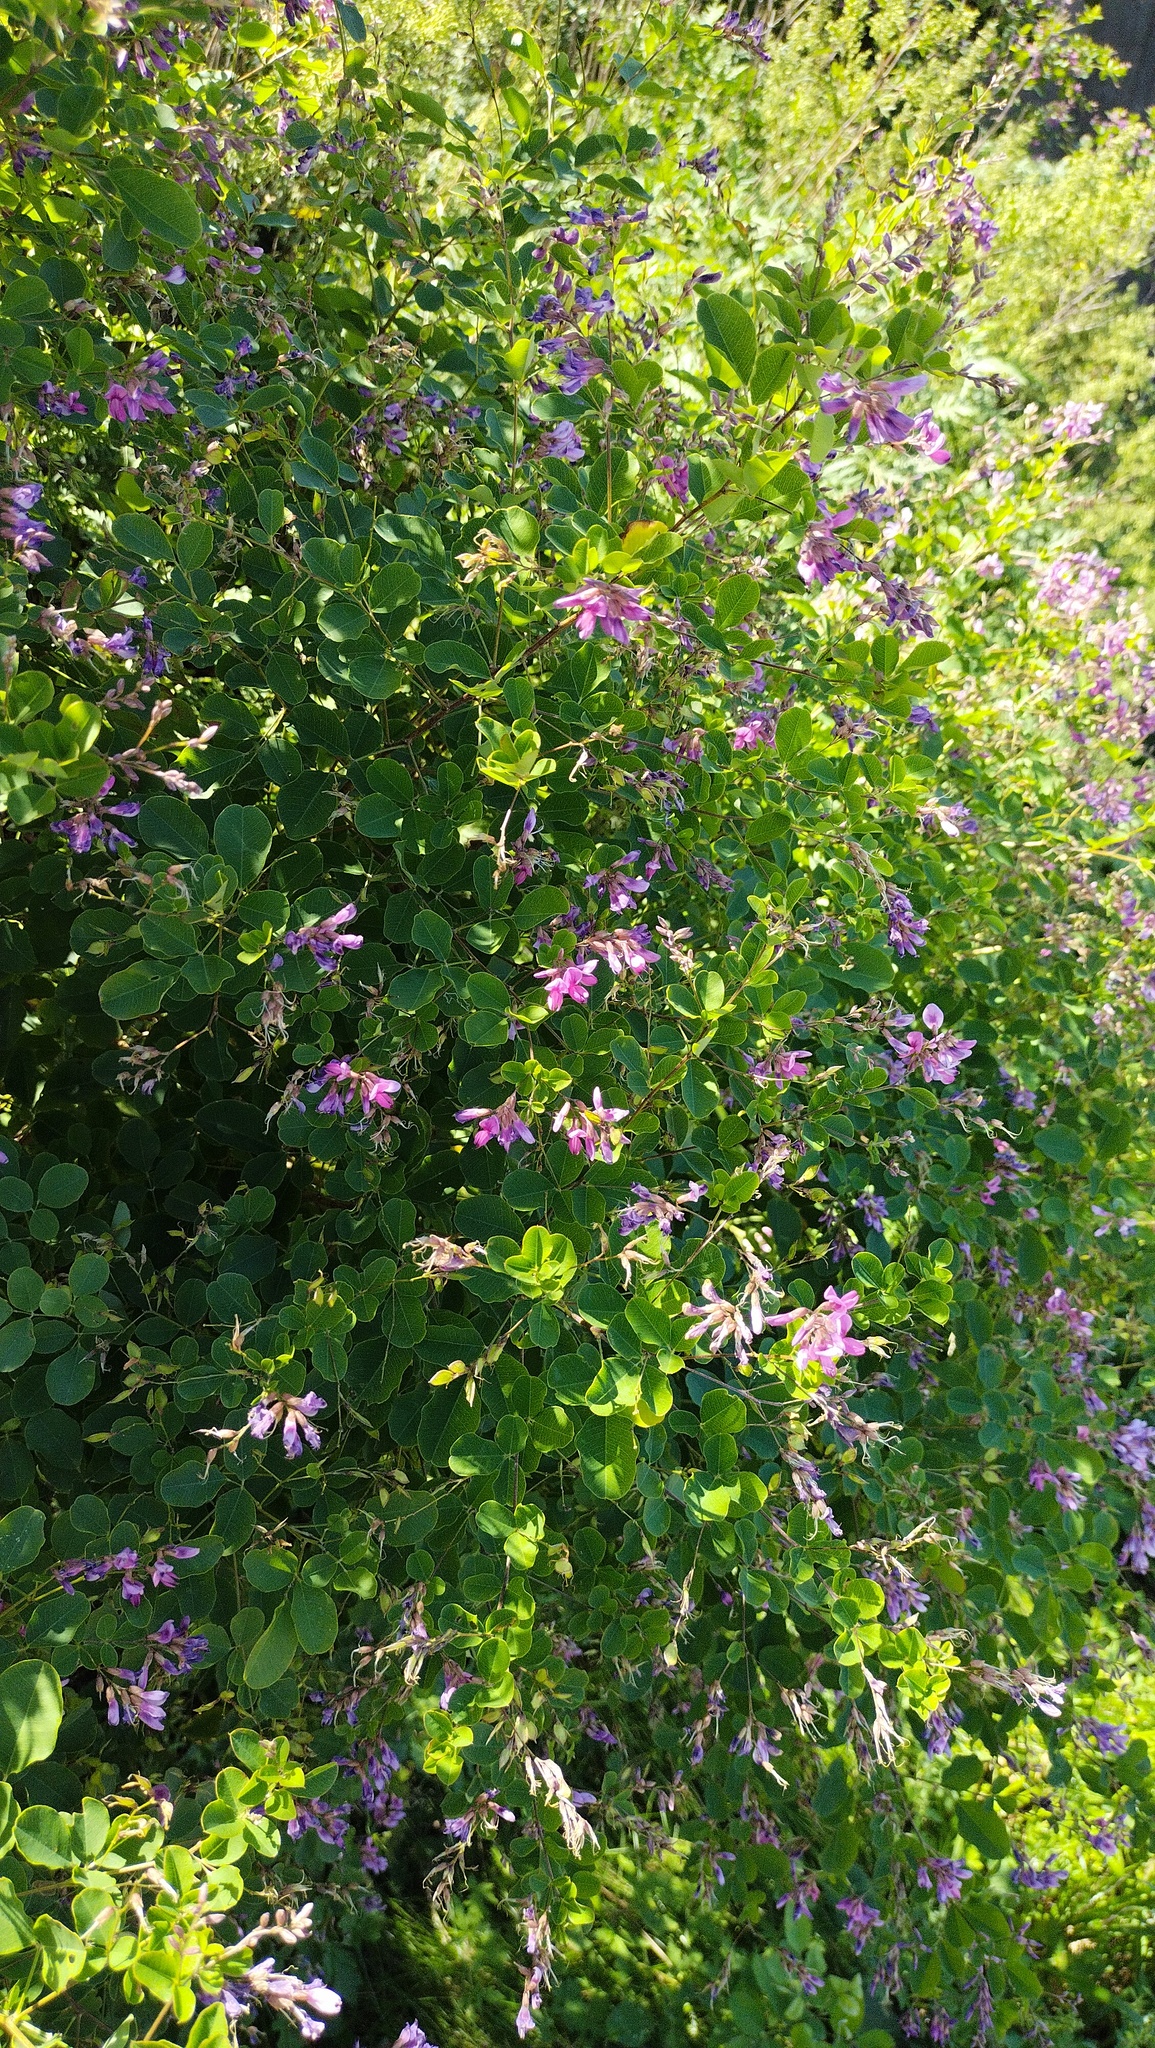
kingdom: Plantae
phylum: Tracheophyta
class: Magnoliopsida
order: Fabales
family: Fabaceae
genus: Lespedeza
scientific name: Lespedeza bicolor
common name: Shrub lespedeza
